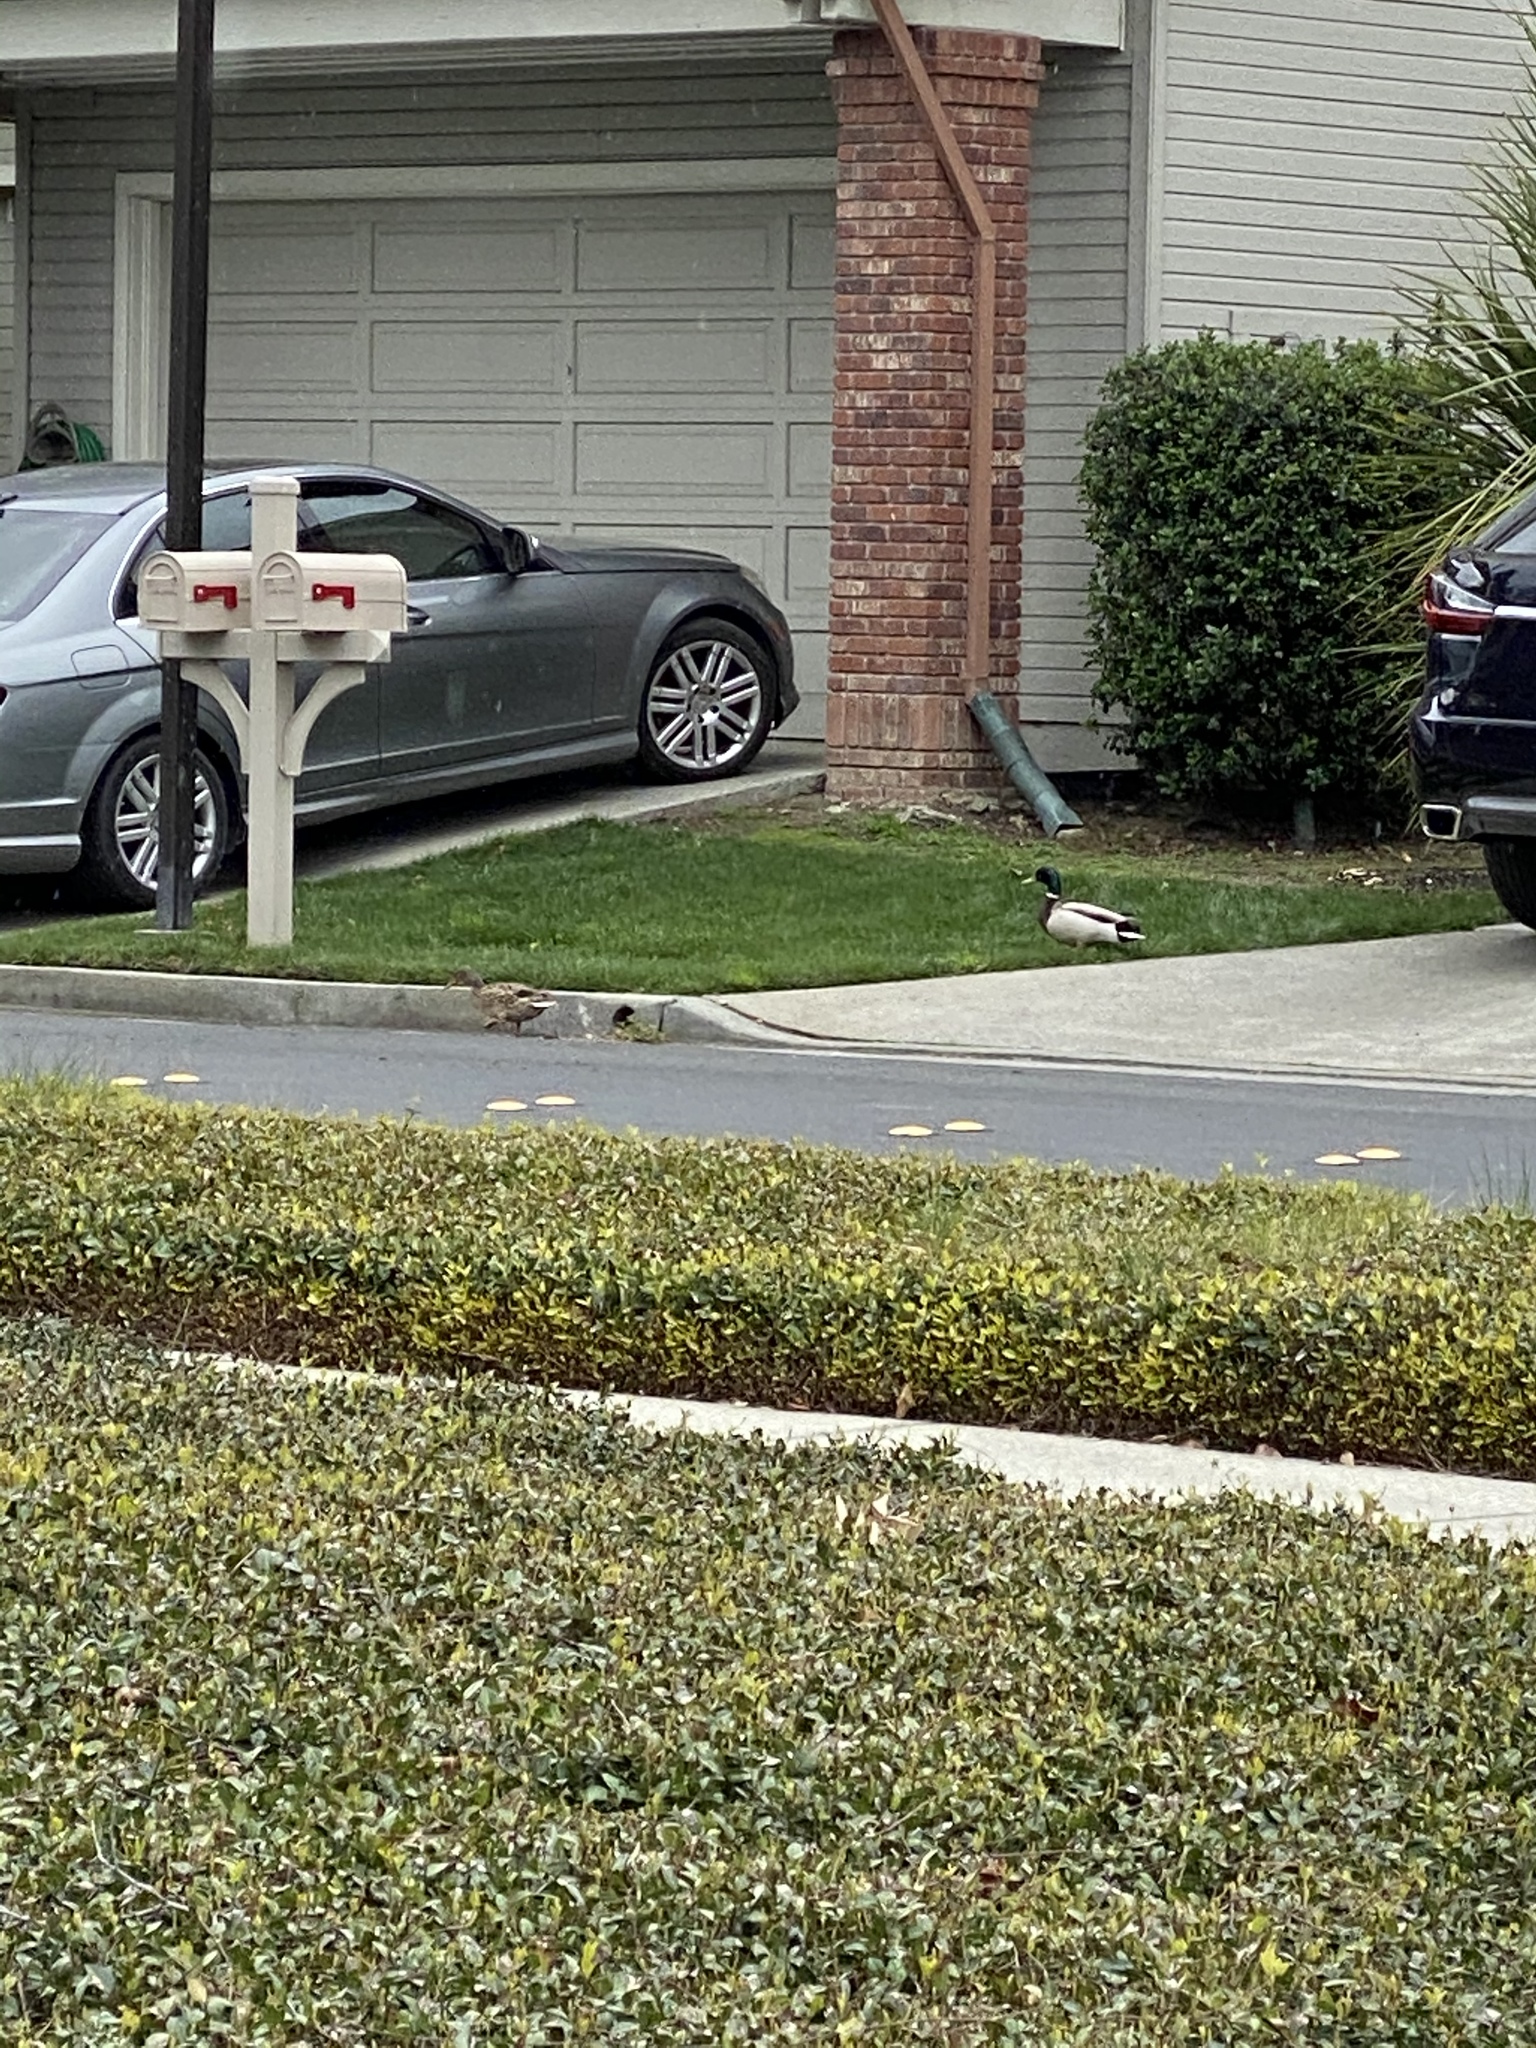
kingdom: Animalia
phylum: Chordata
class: Aves
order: Anseriformes
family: Anatidae
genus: Anas
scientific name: Anas platyrhynchos
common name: Mallard
